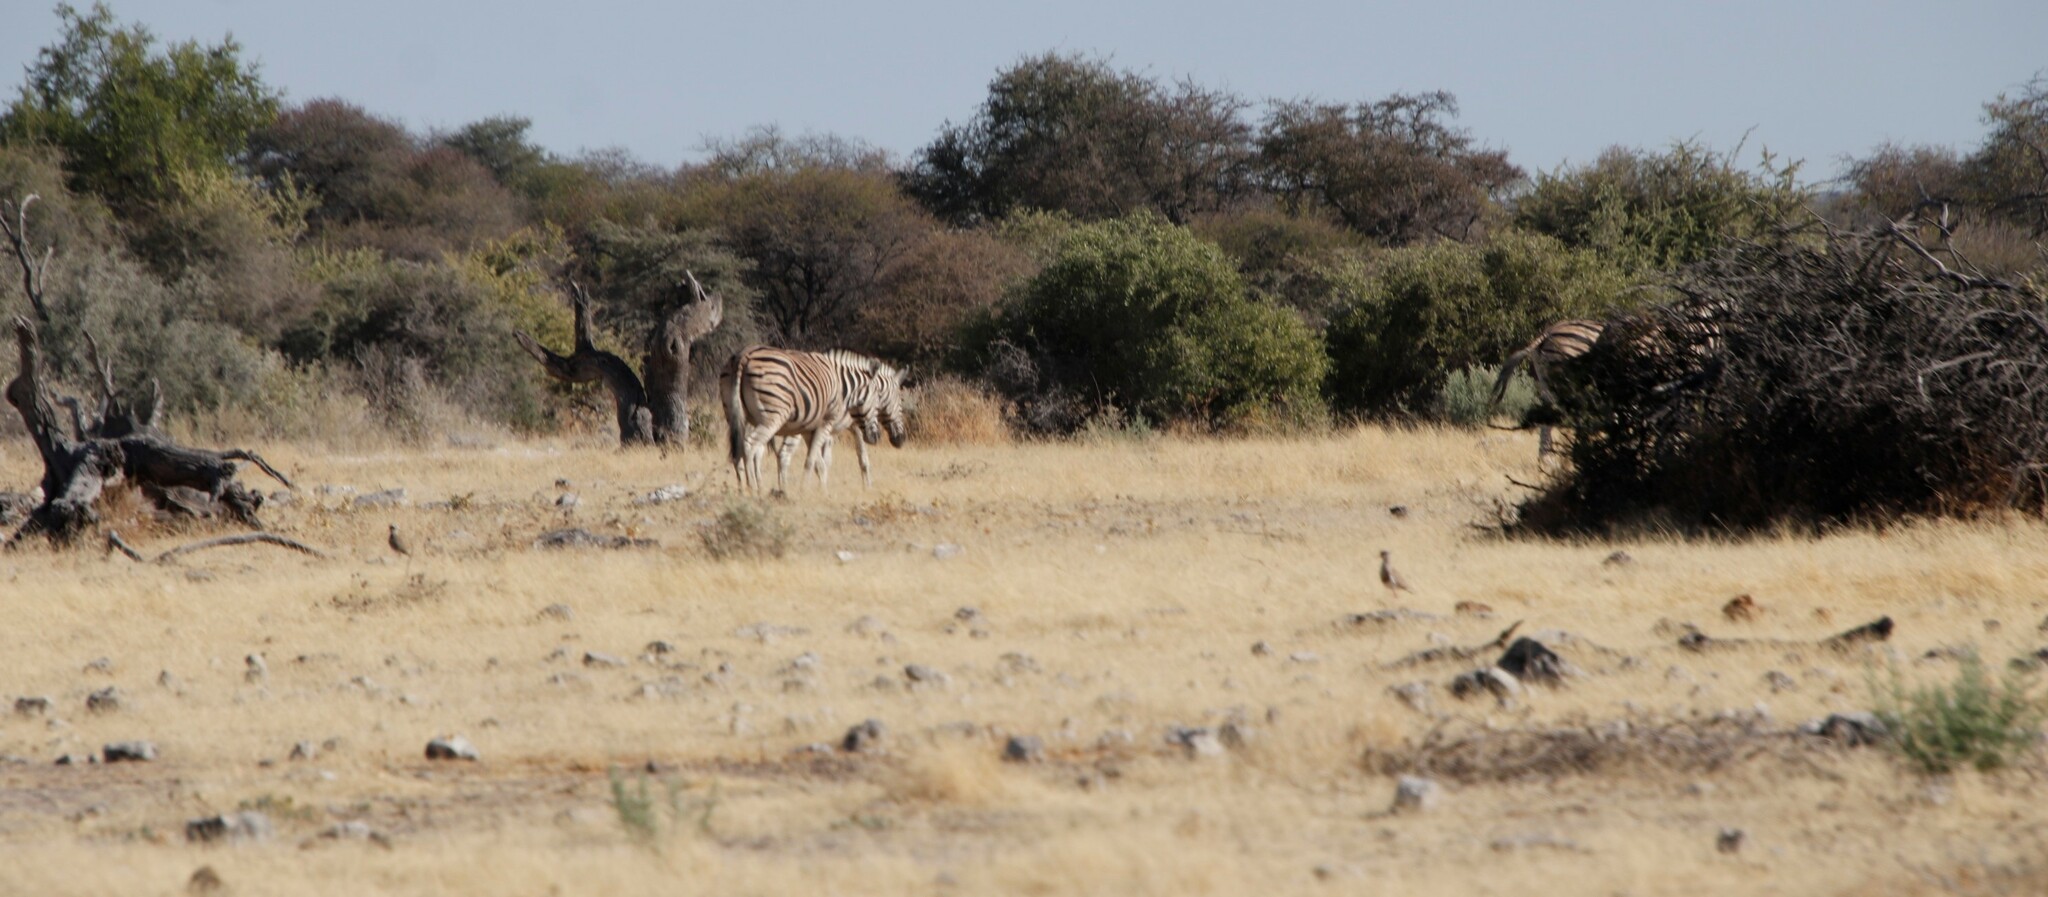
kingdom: Animalia
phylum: Chordata
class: Mammalia
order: Perissodactyla
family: Equidae
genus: Equus
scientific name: Equus quagga
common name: Plains zebra
